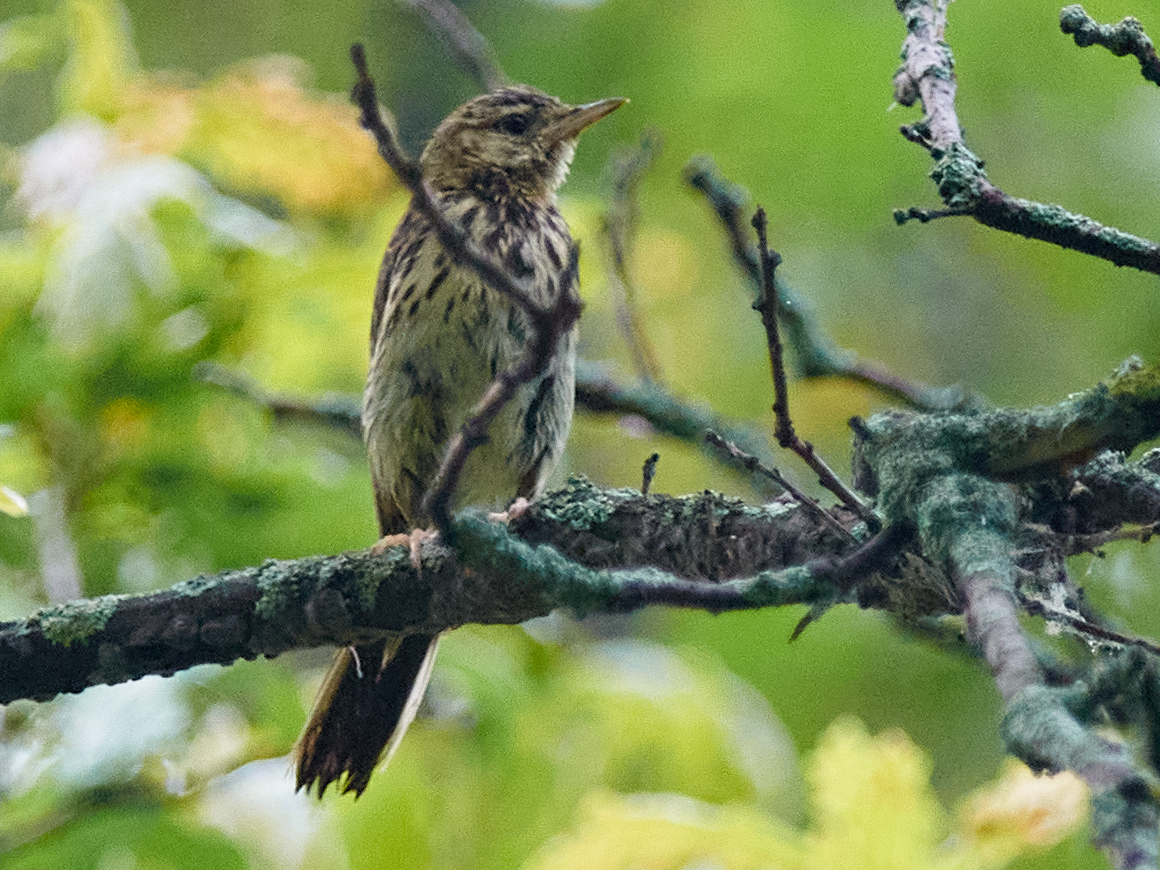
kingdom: Animalia
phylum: Chordata
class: Aves
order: Passeriformes
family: Motacillidae
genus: Anthus
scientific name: Anthus trivialis
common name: Tree pipit
